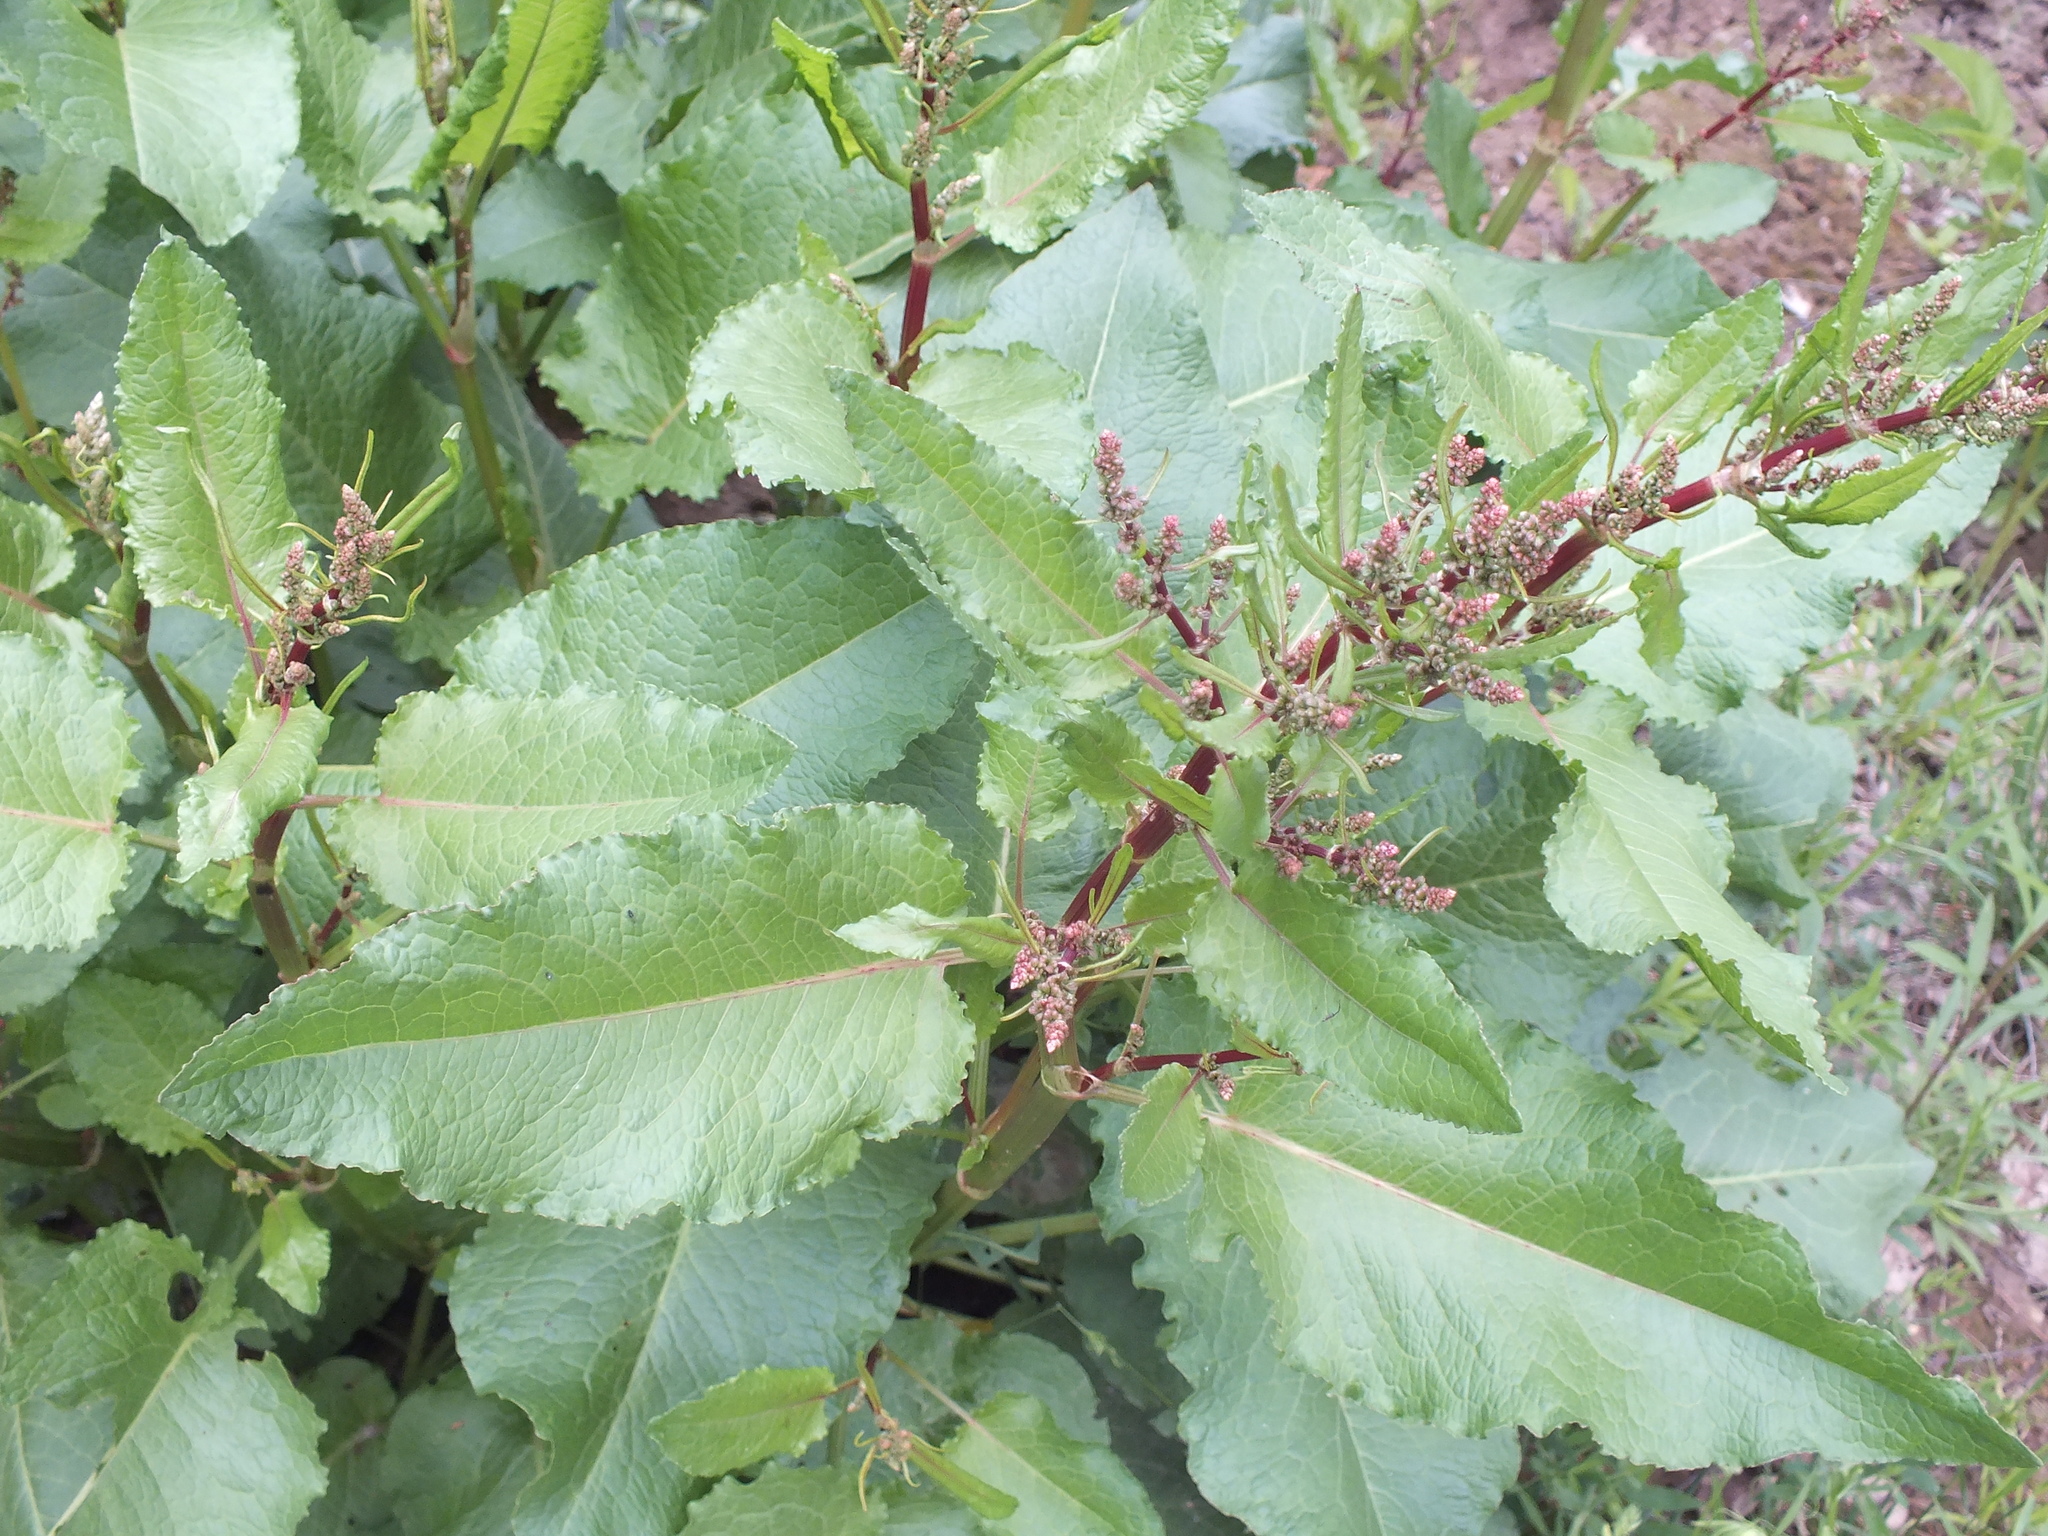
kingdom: Plantae
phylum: Tracheophyta
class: Magnoliopsida
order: Caryophyllales
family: Polygonaceae
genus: Rumex
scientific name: Rumex obtusifolius
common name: Bitter dock
